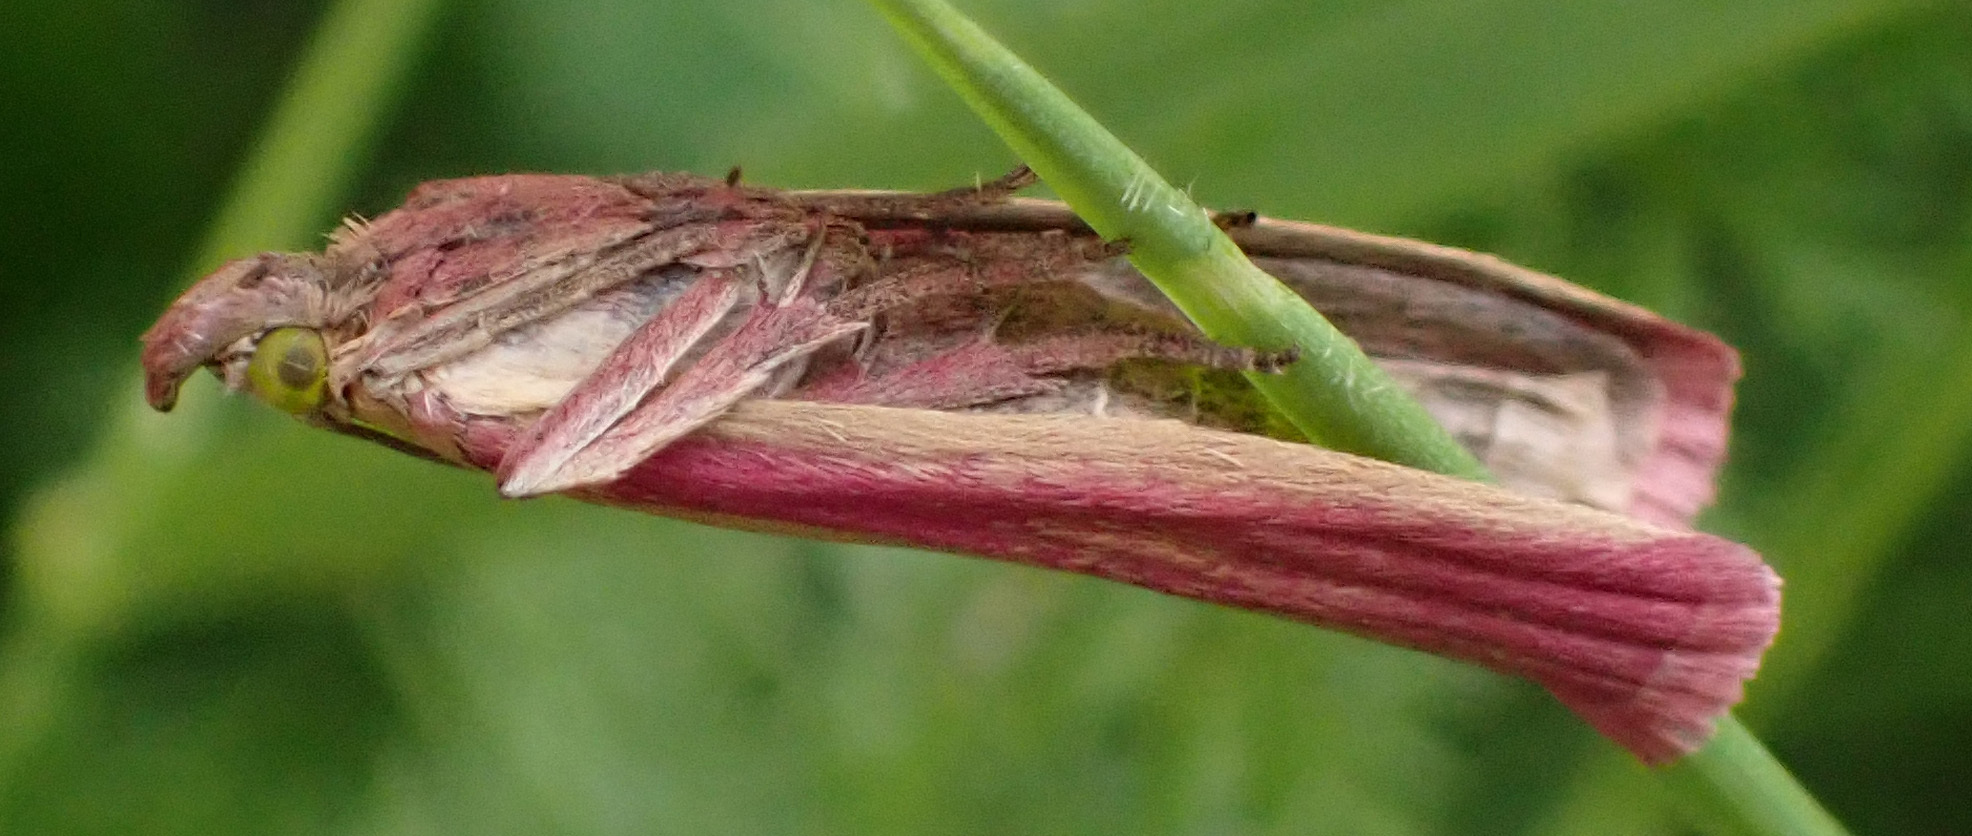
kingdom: Animalia
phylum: Arthropoda
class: Insecta
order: Lepidoptera
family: Pyralidae
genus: Oncocera
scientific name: Oncocera semirubella
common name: Rosy-striped knot-horn
